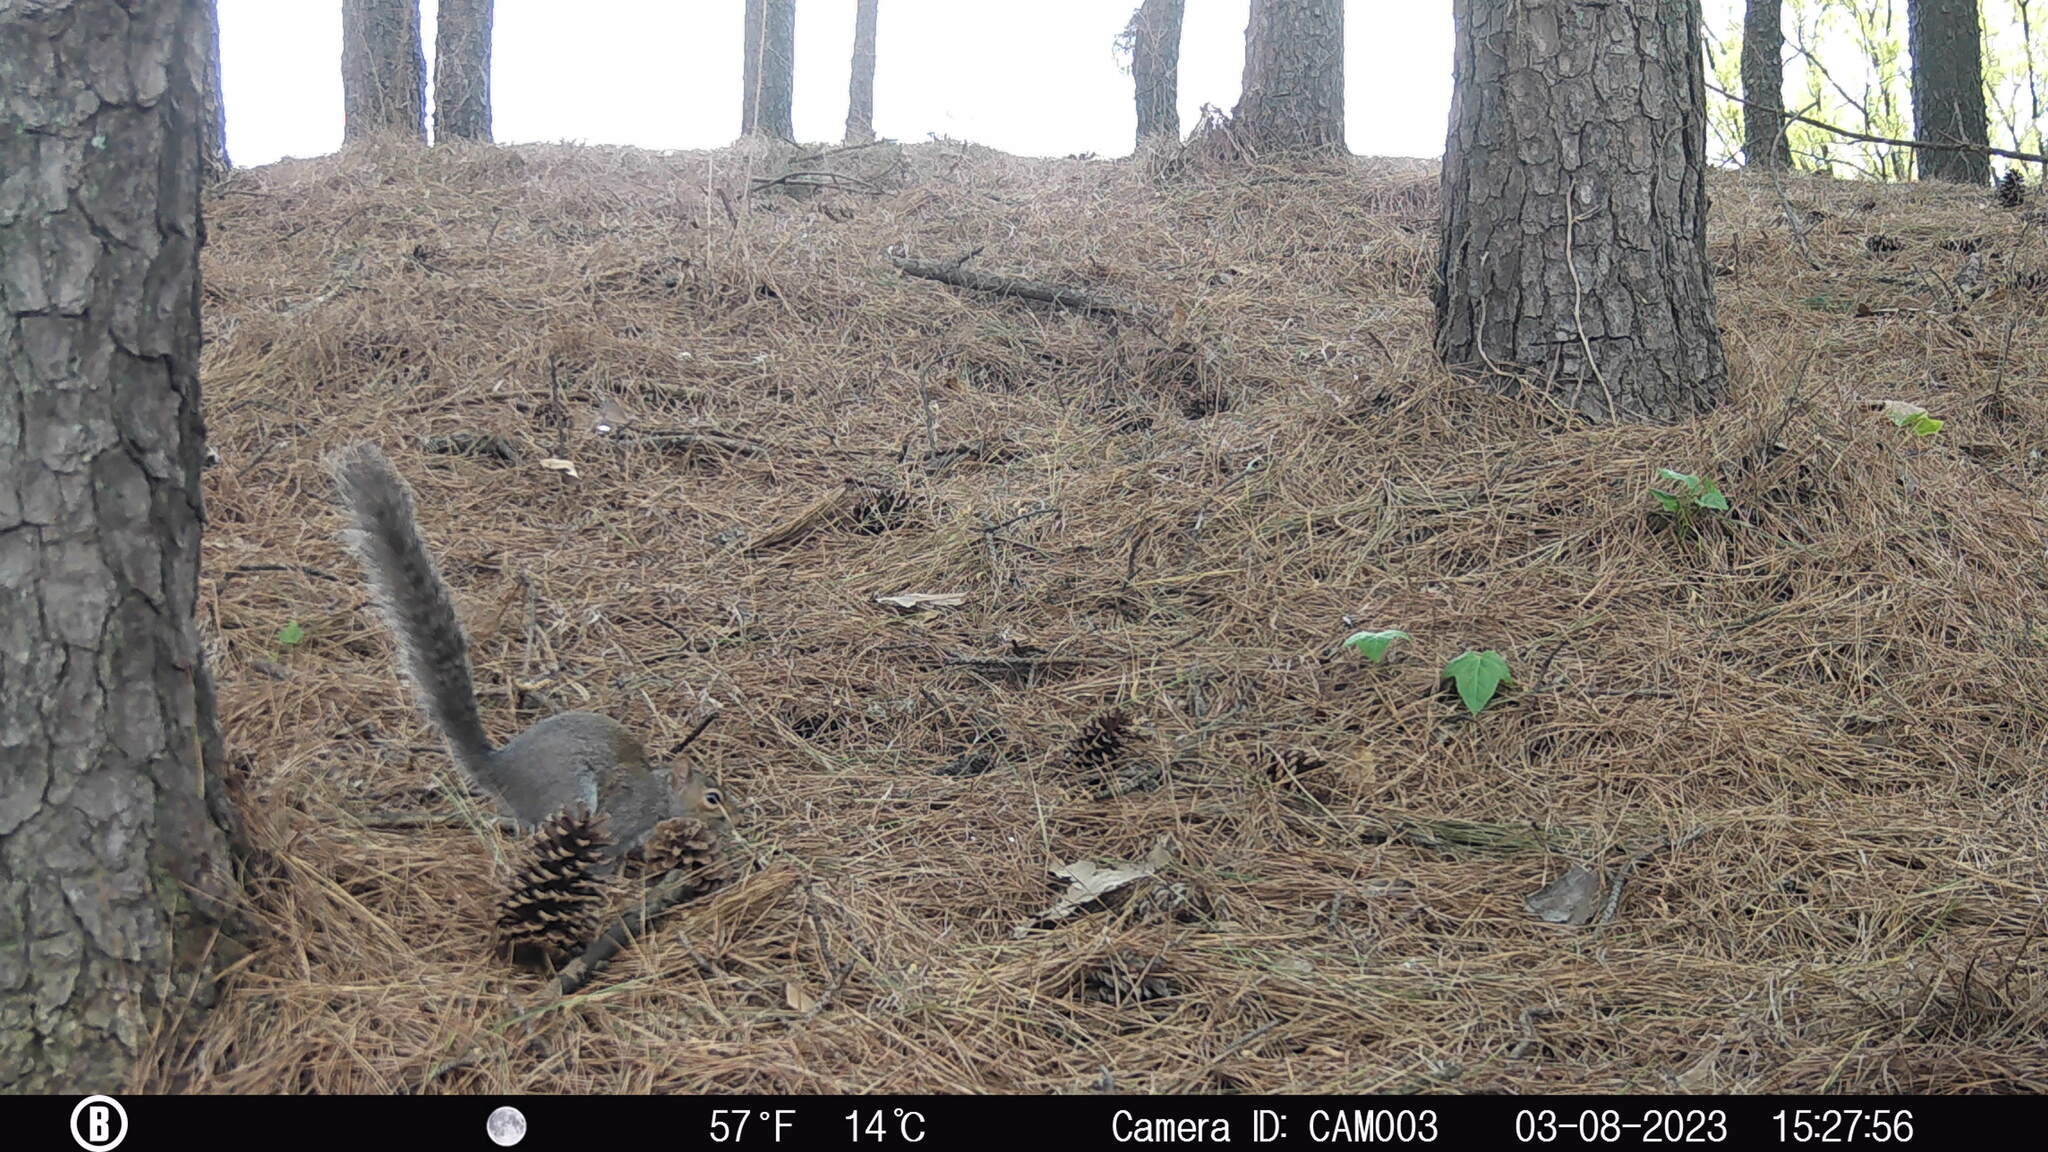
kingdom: Animalia
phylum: Chordata
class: Mammalia
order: Rodentia
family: Sciuridae
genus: Sciurus
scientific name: Sciurus carolinensis
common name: Eastern gray squirrel
